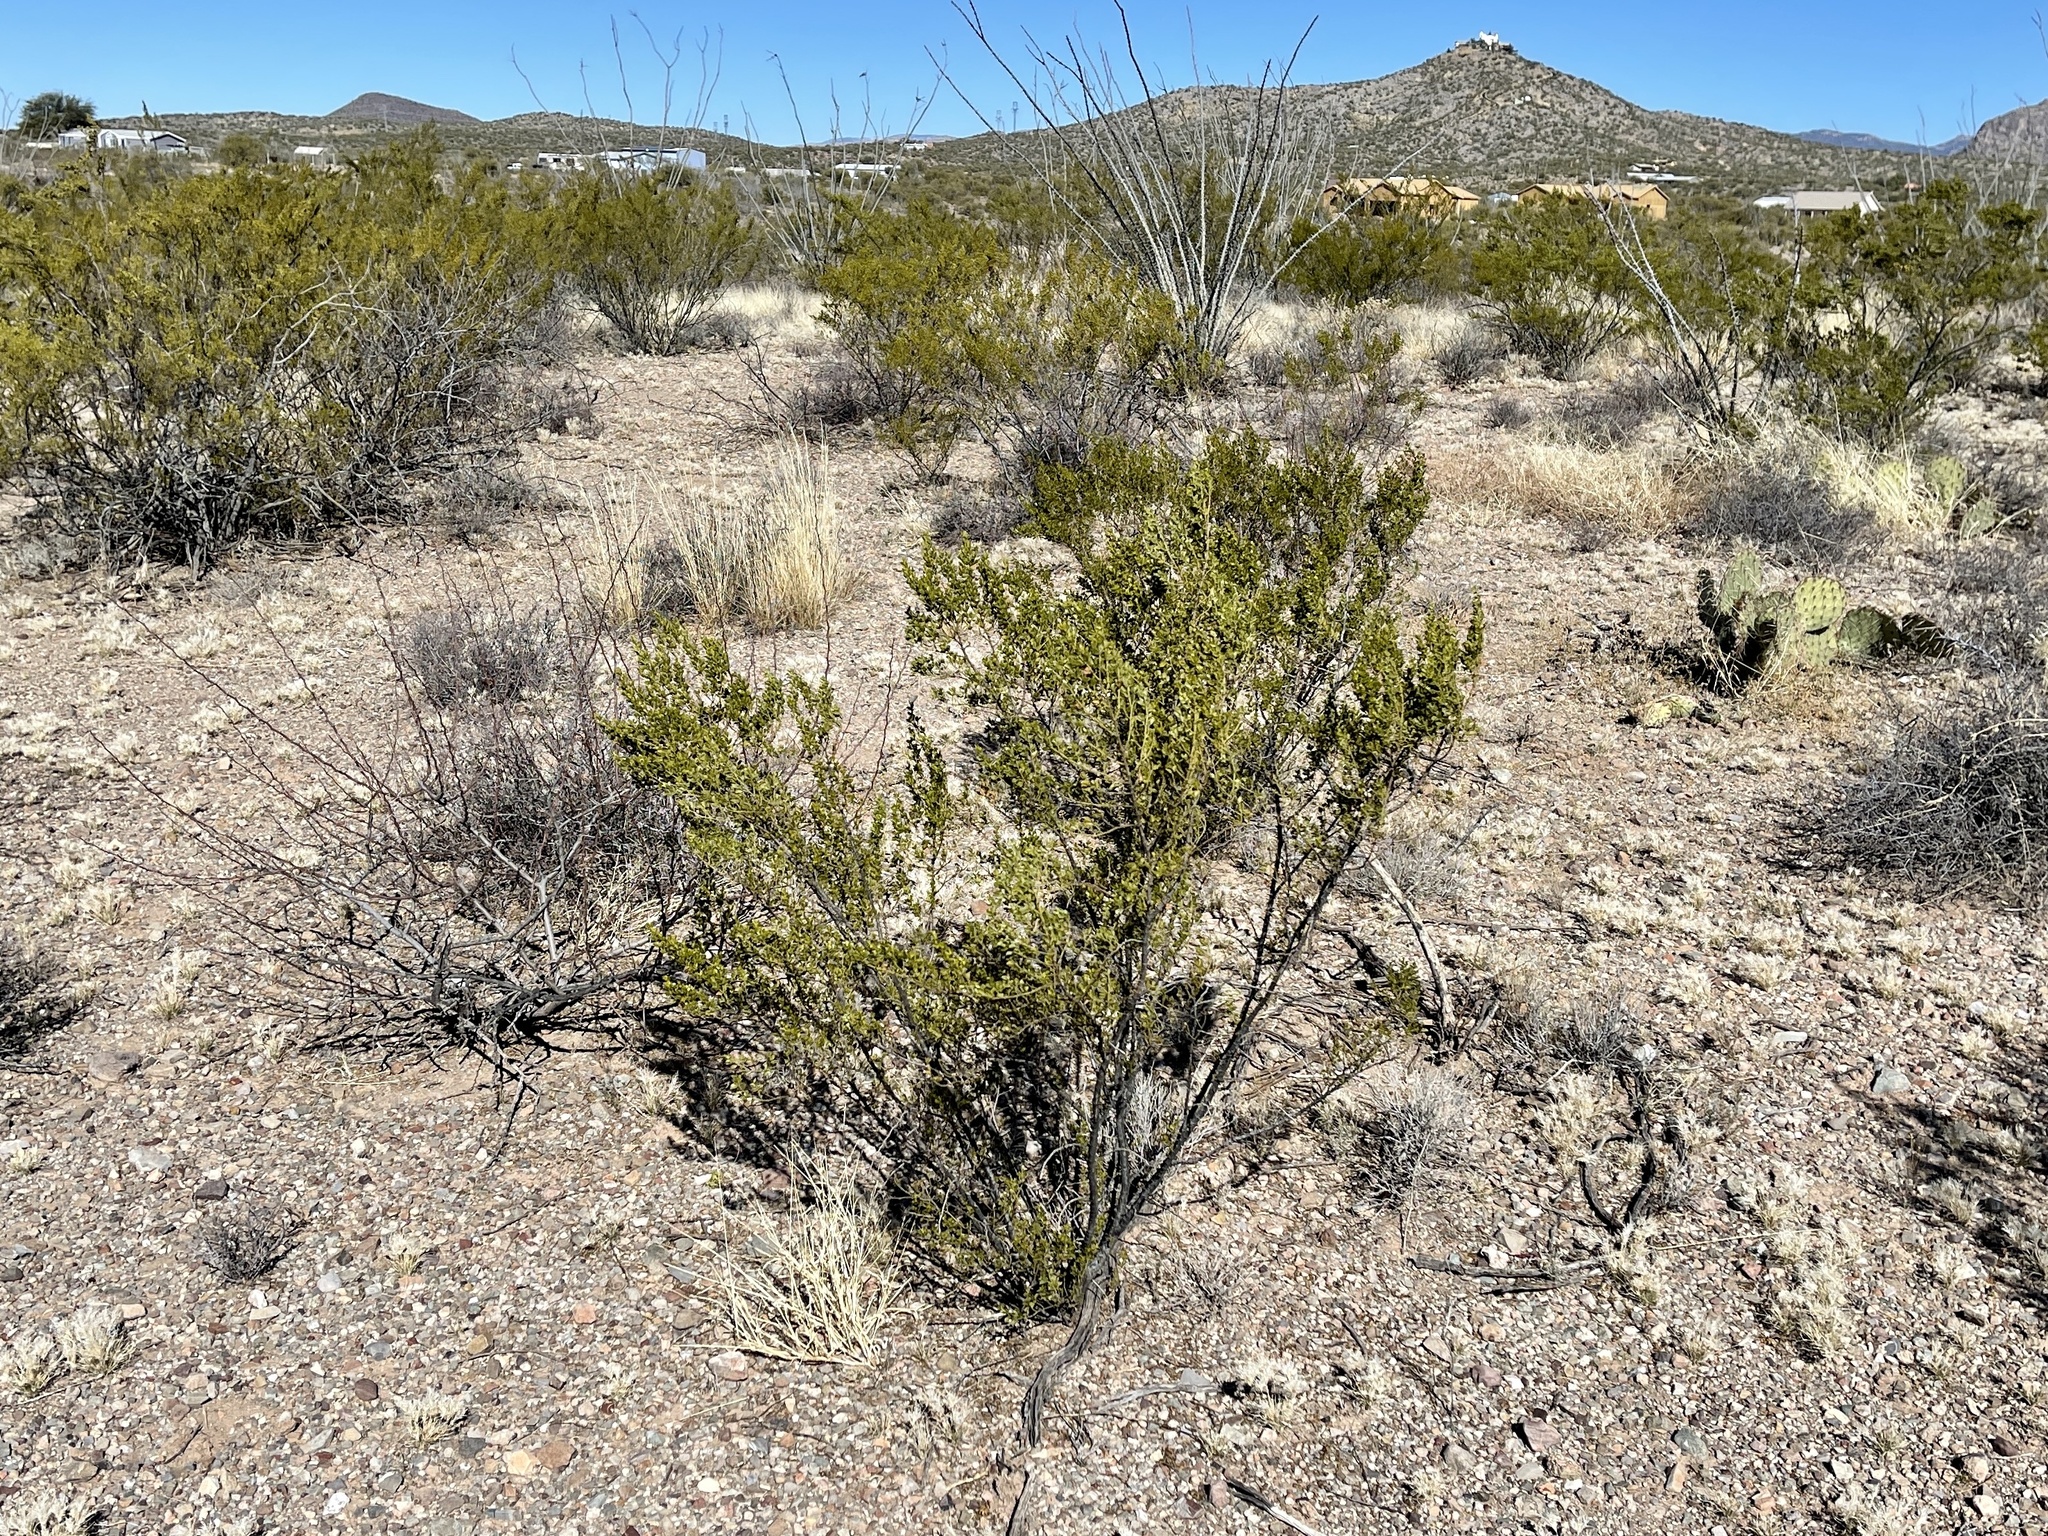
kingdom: Plantae
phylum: Tracheophyta
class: Magnoliopsida
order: Zygophyllales
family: Zygophyllaceae
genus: Larrea
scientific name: Larrea tridentata
